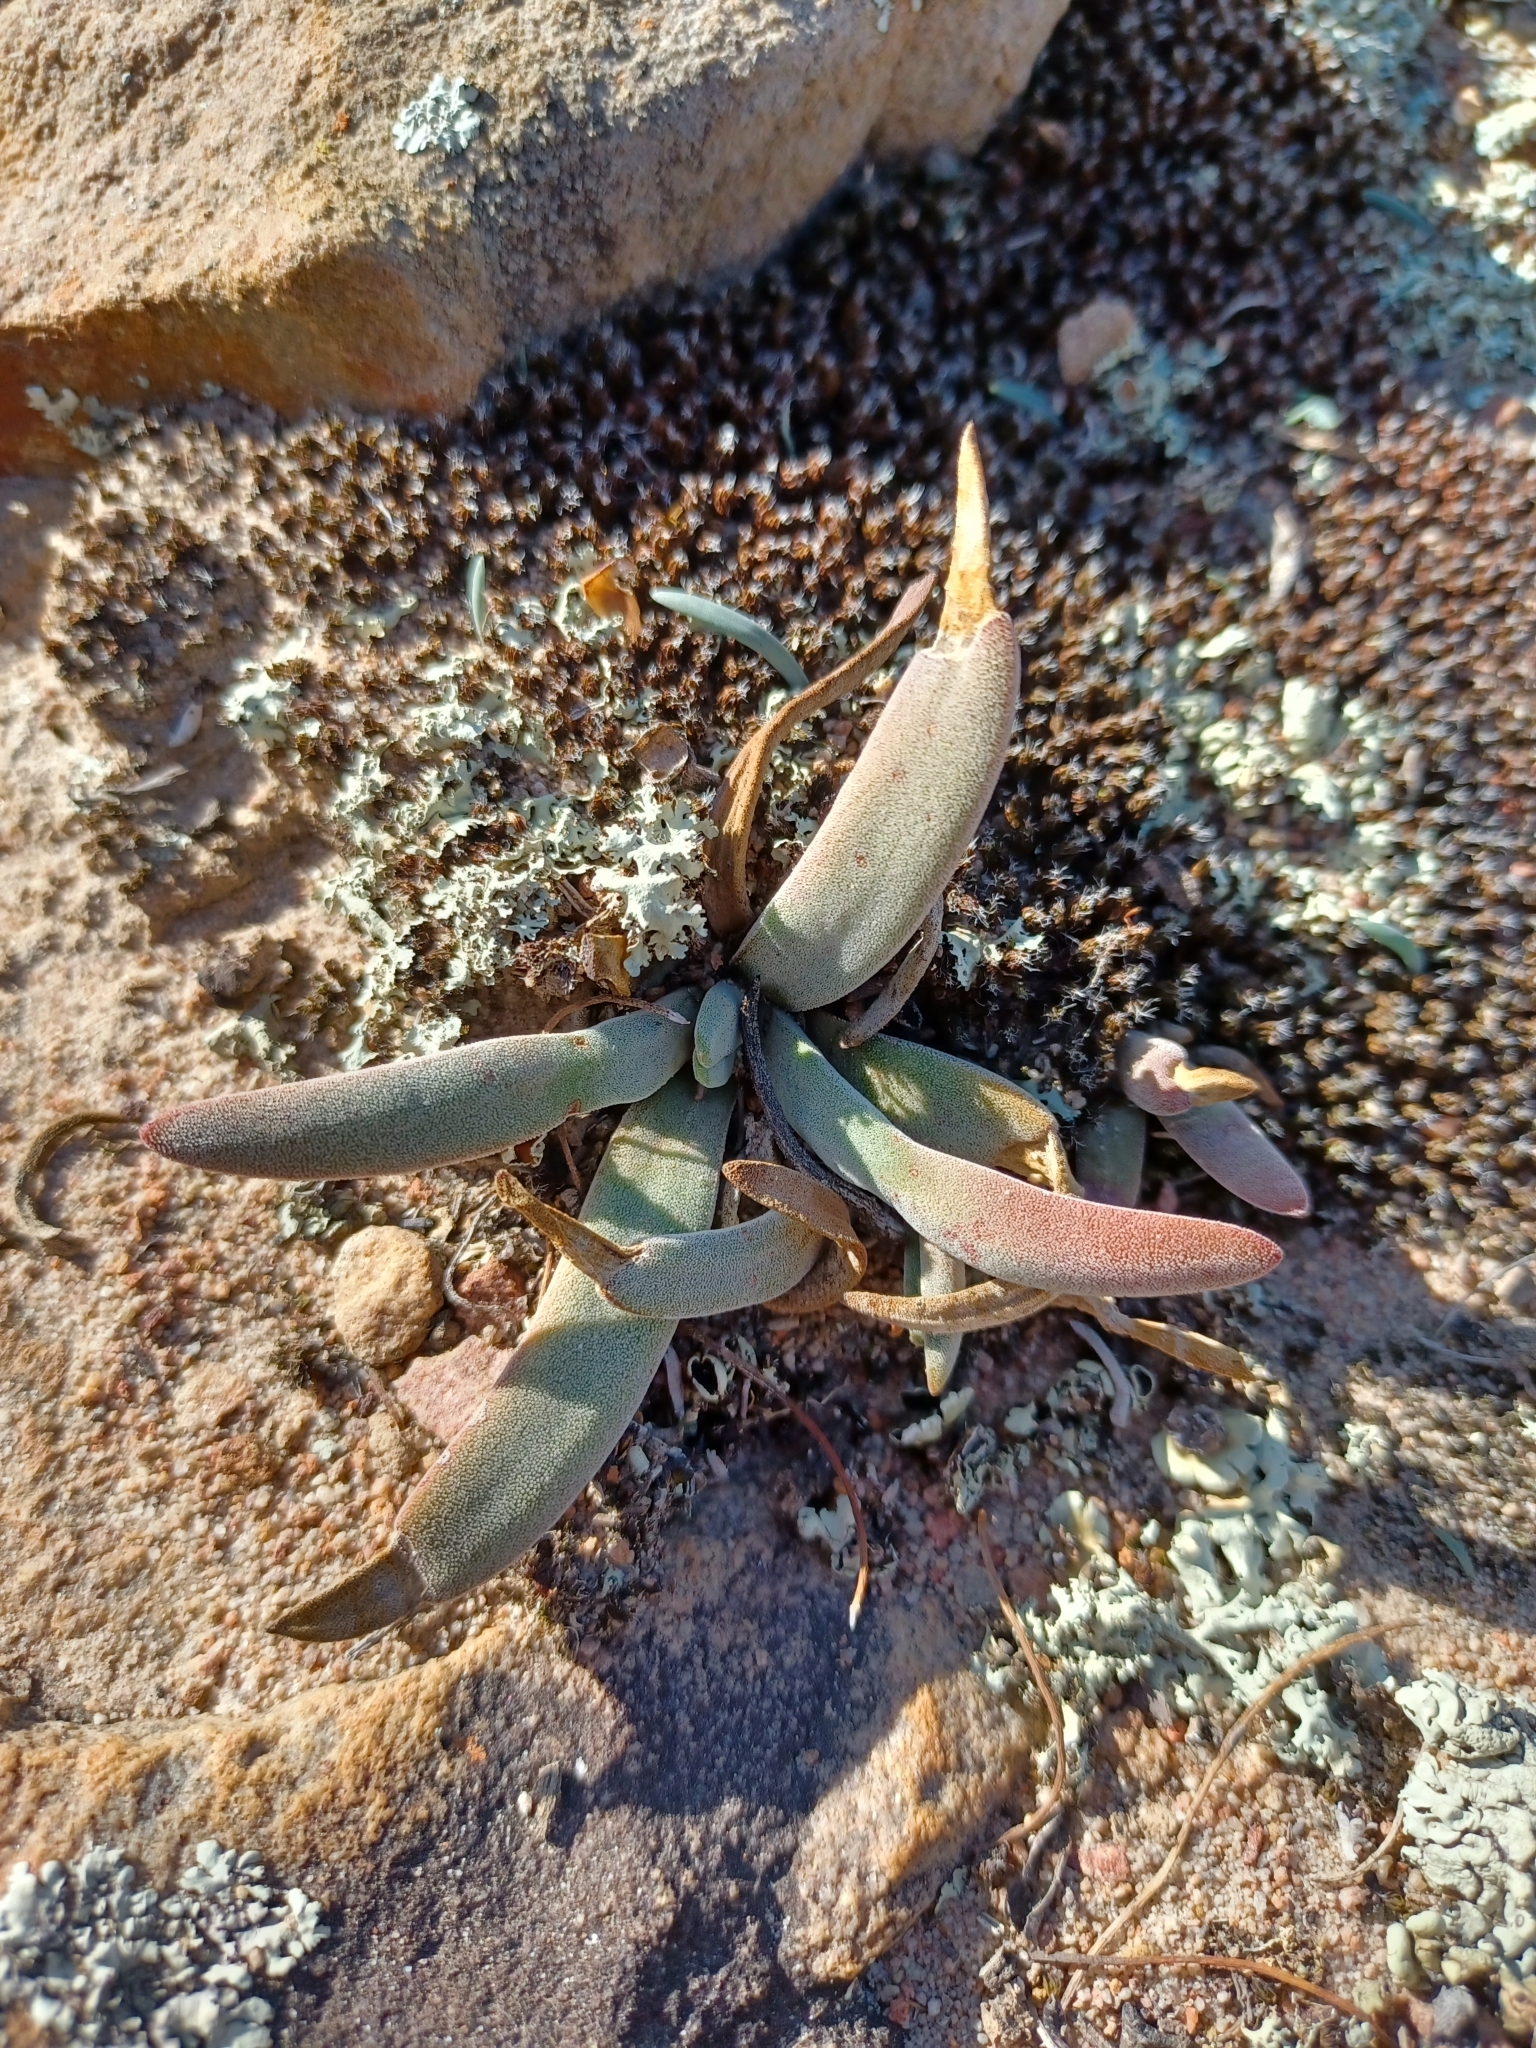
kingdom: Plantae
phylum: Tracheophyta
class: Magnoliopsida
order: Saxifragales
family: Crassulaceae
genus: Crassula
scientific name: Crassula nudicaulis
